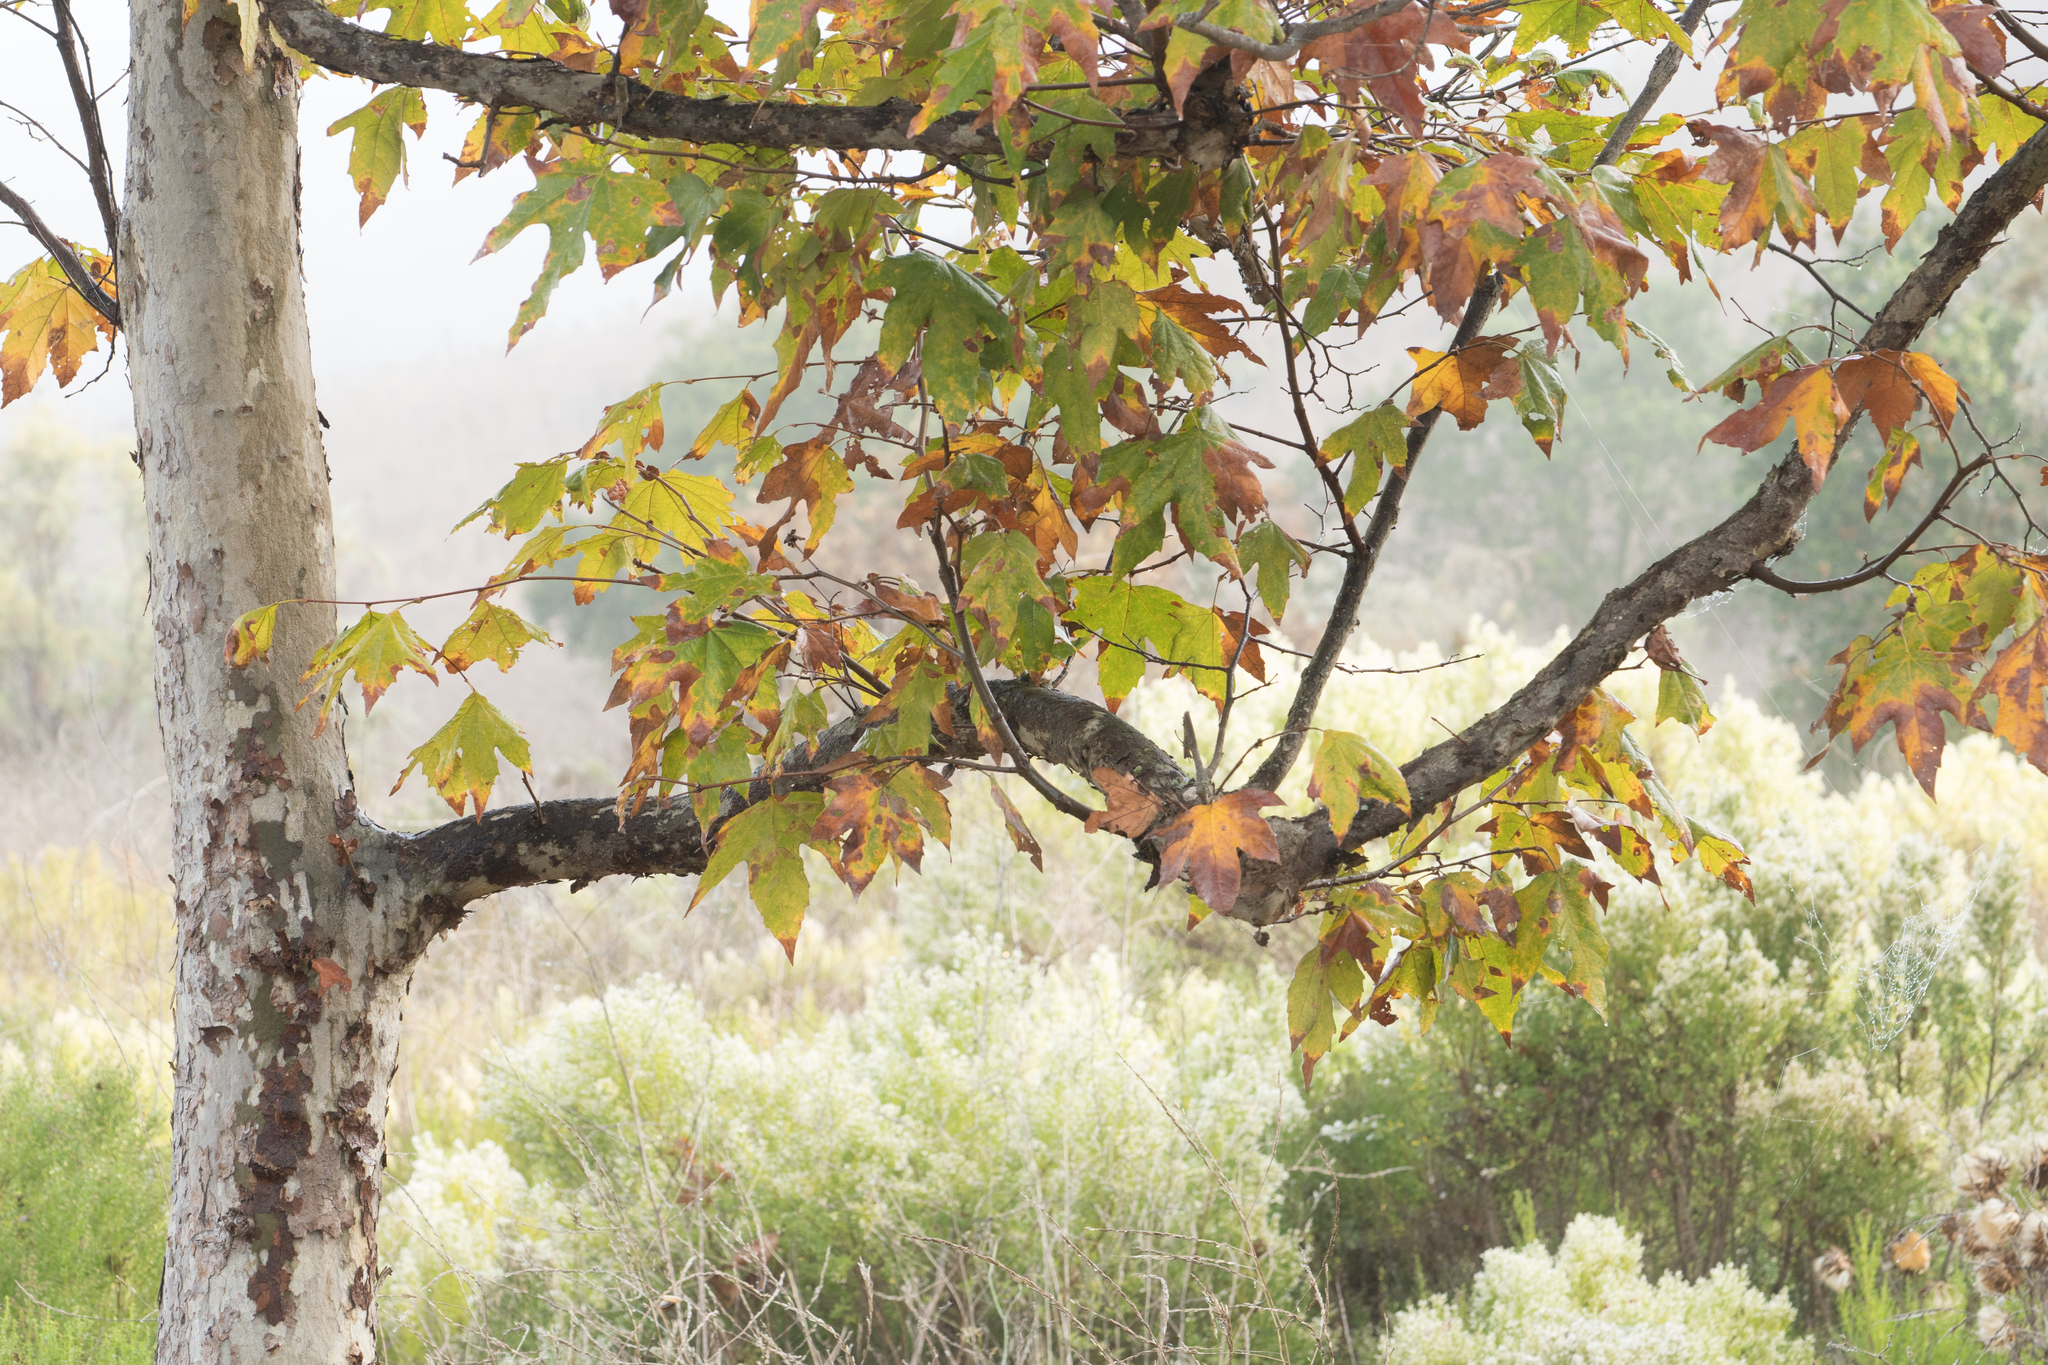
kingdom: Plantae
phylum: Tracheophyta
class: Magnoliopsida
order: Proteales
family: Platanaceae
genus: Platanus
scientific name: Platanus racemosa
